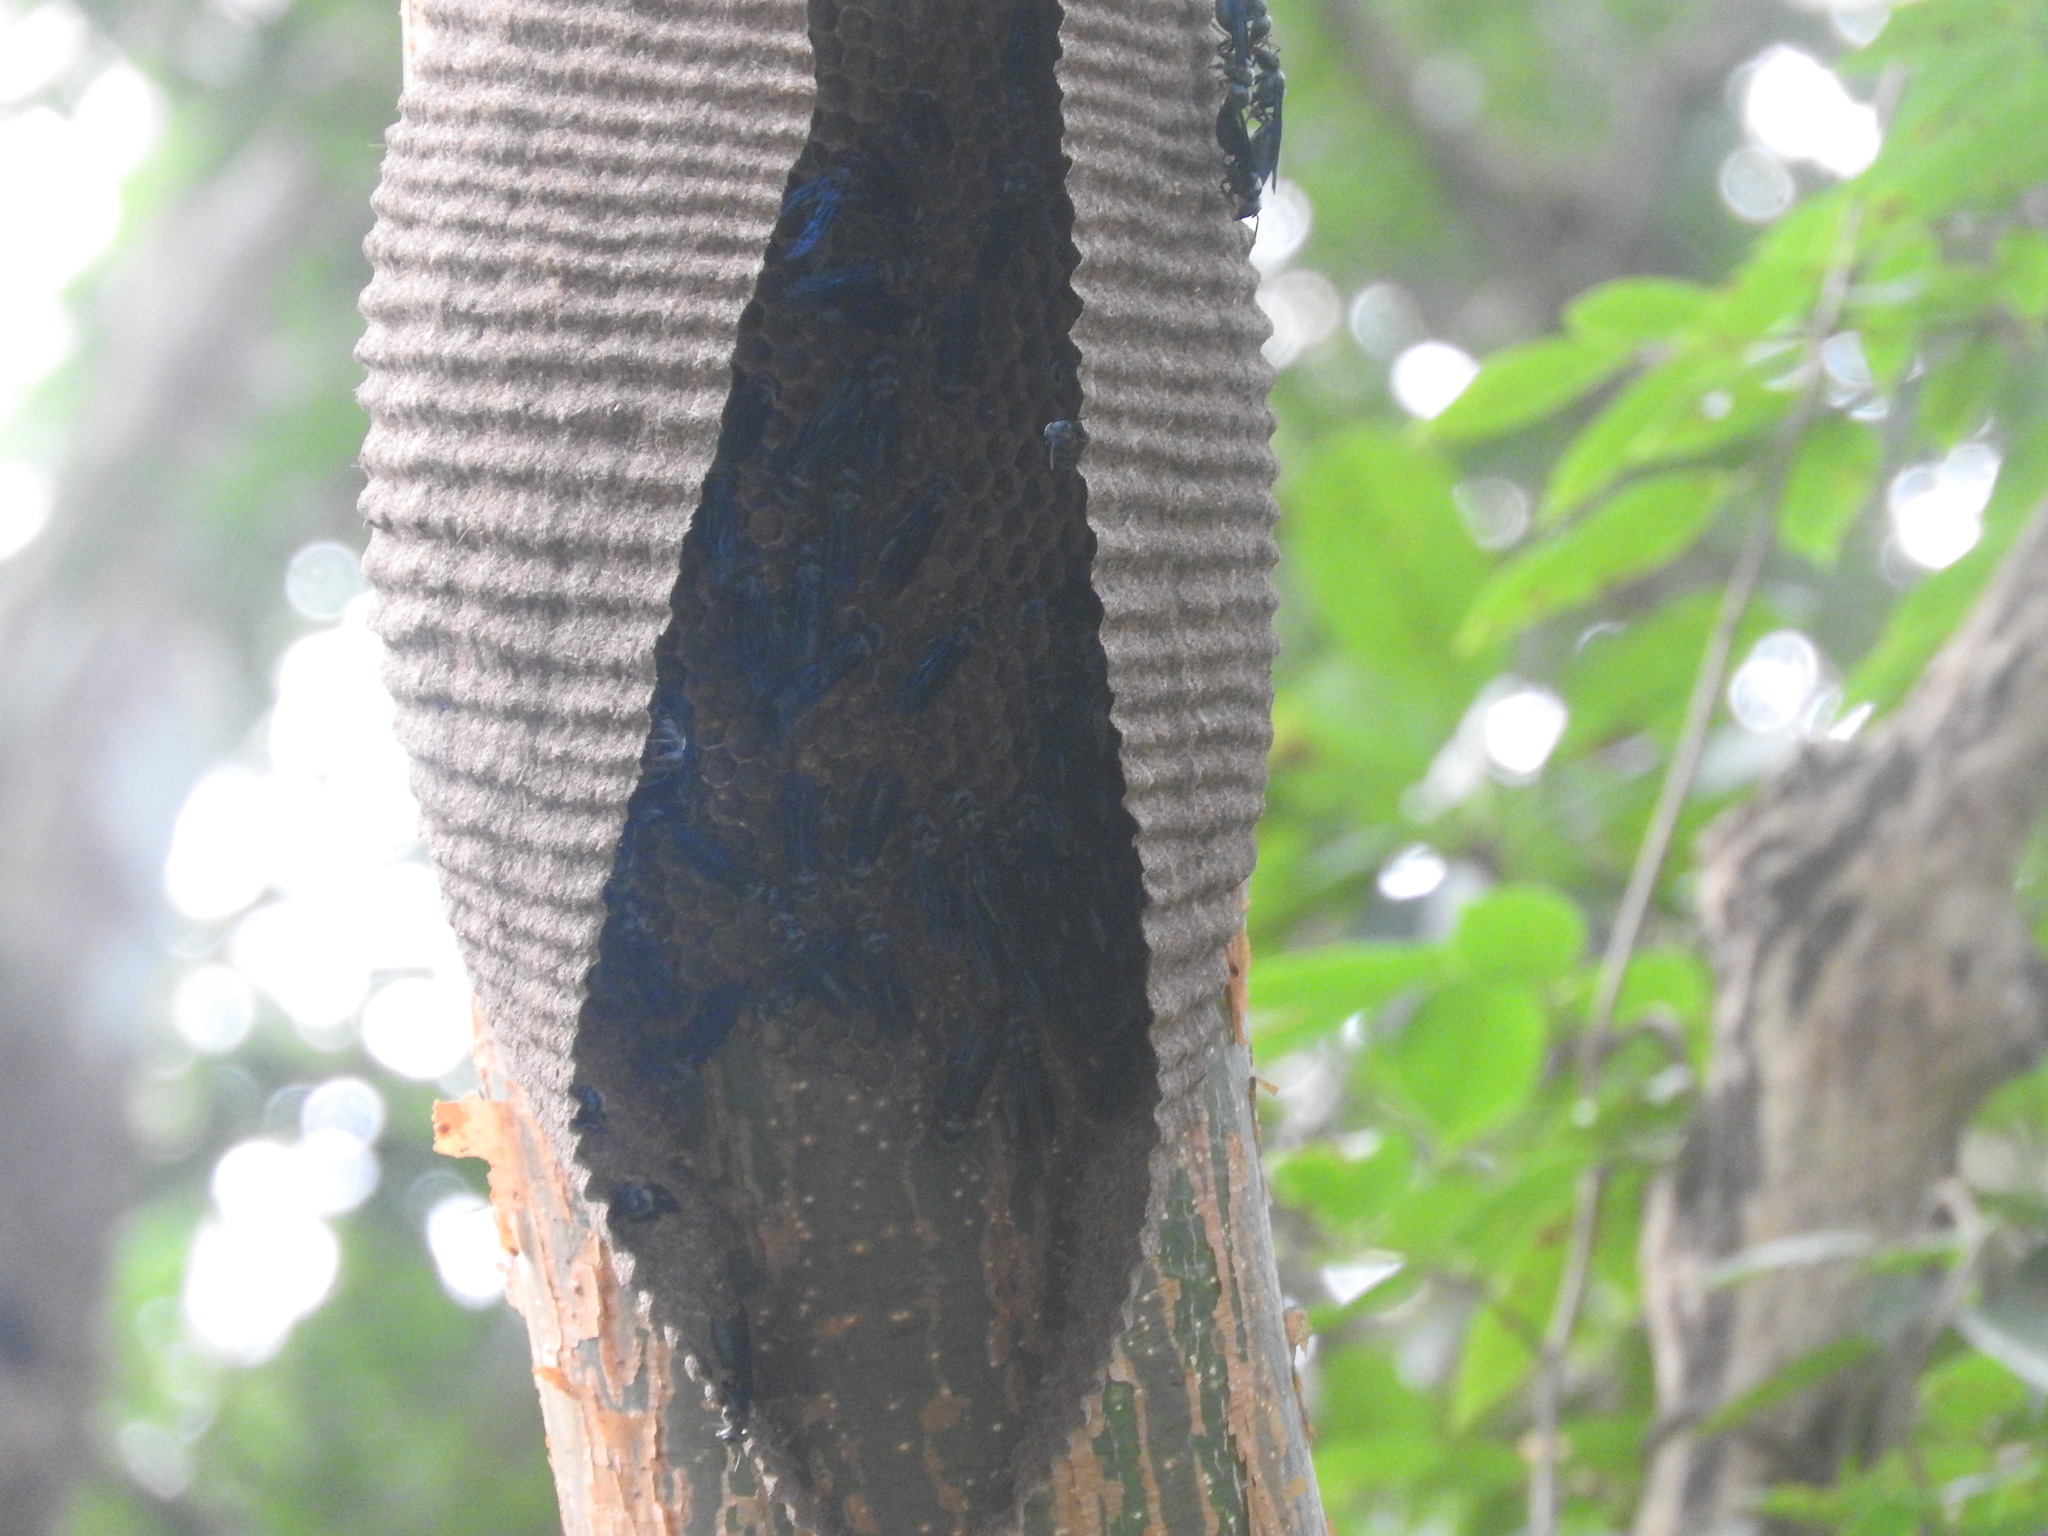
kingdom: Animalia
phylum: Arthropoda
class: Insecta
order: Hymenoptera
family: Vespidae
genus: Synoeca
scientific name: Synoeca septentrionalis
